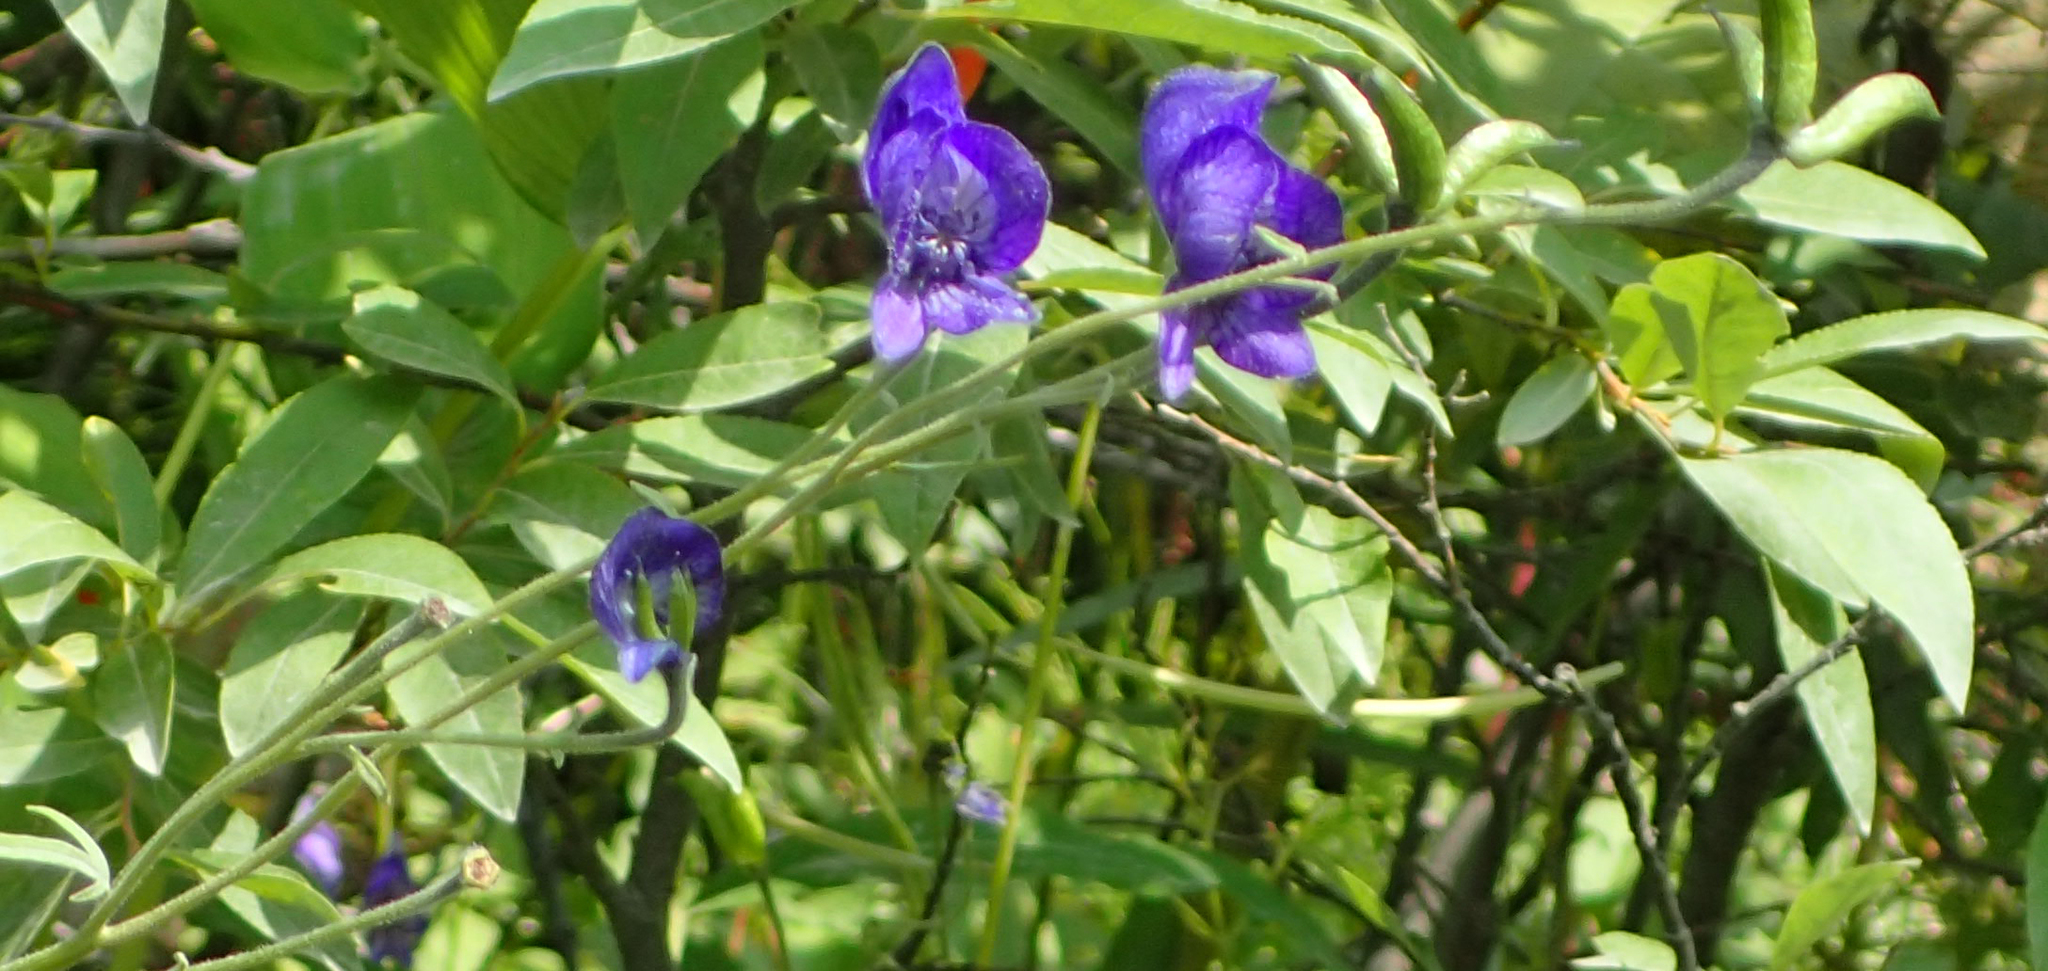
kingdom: Plantae
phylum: Tracheophyta
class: Magnoliopsida
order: Ranunculales
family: Ranunculaceae
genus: Aconitum
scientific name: Aconitum delphiniifolium
